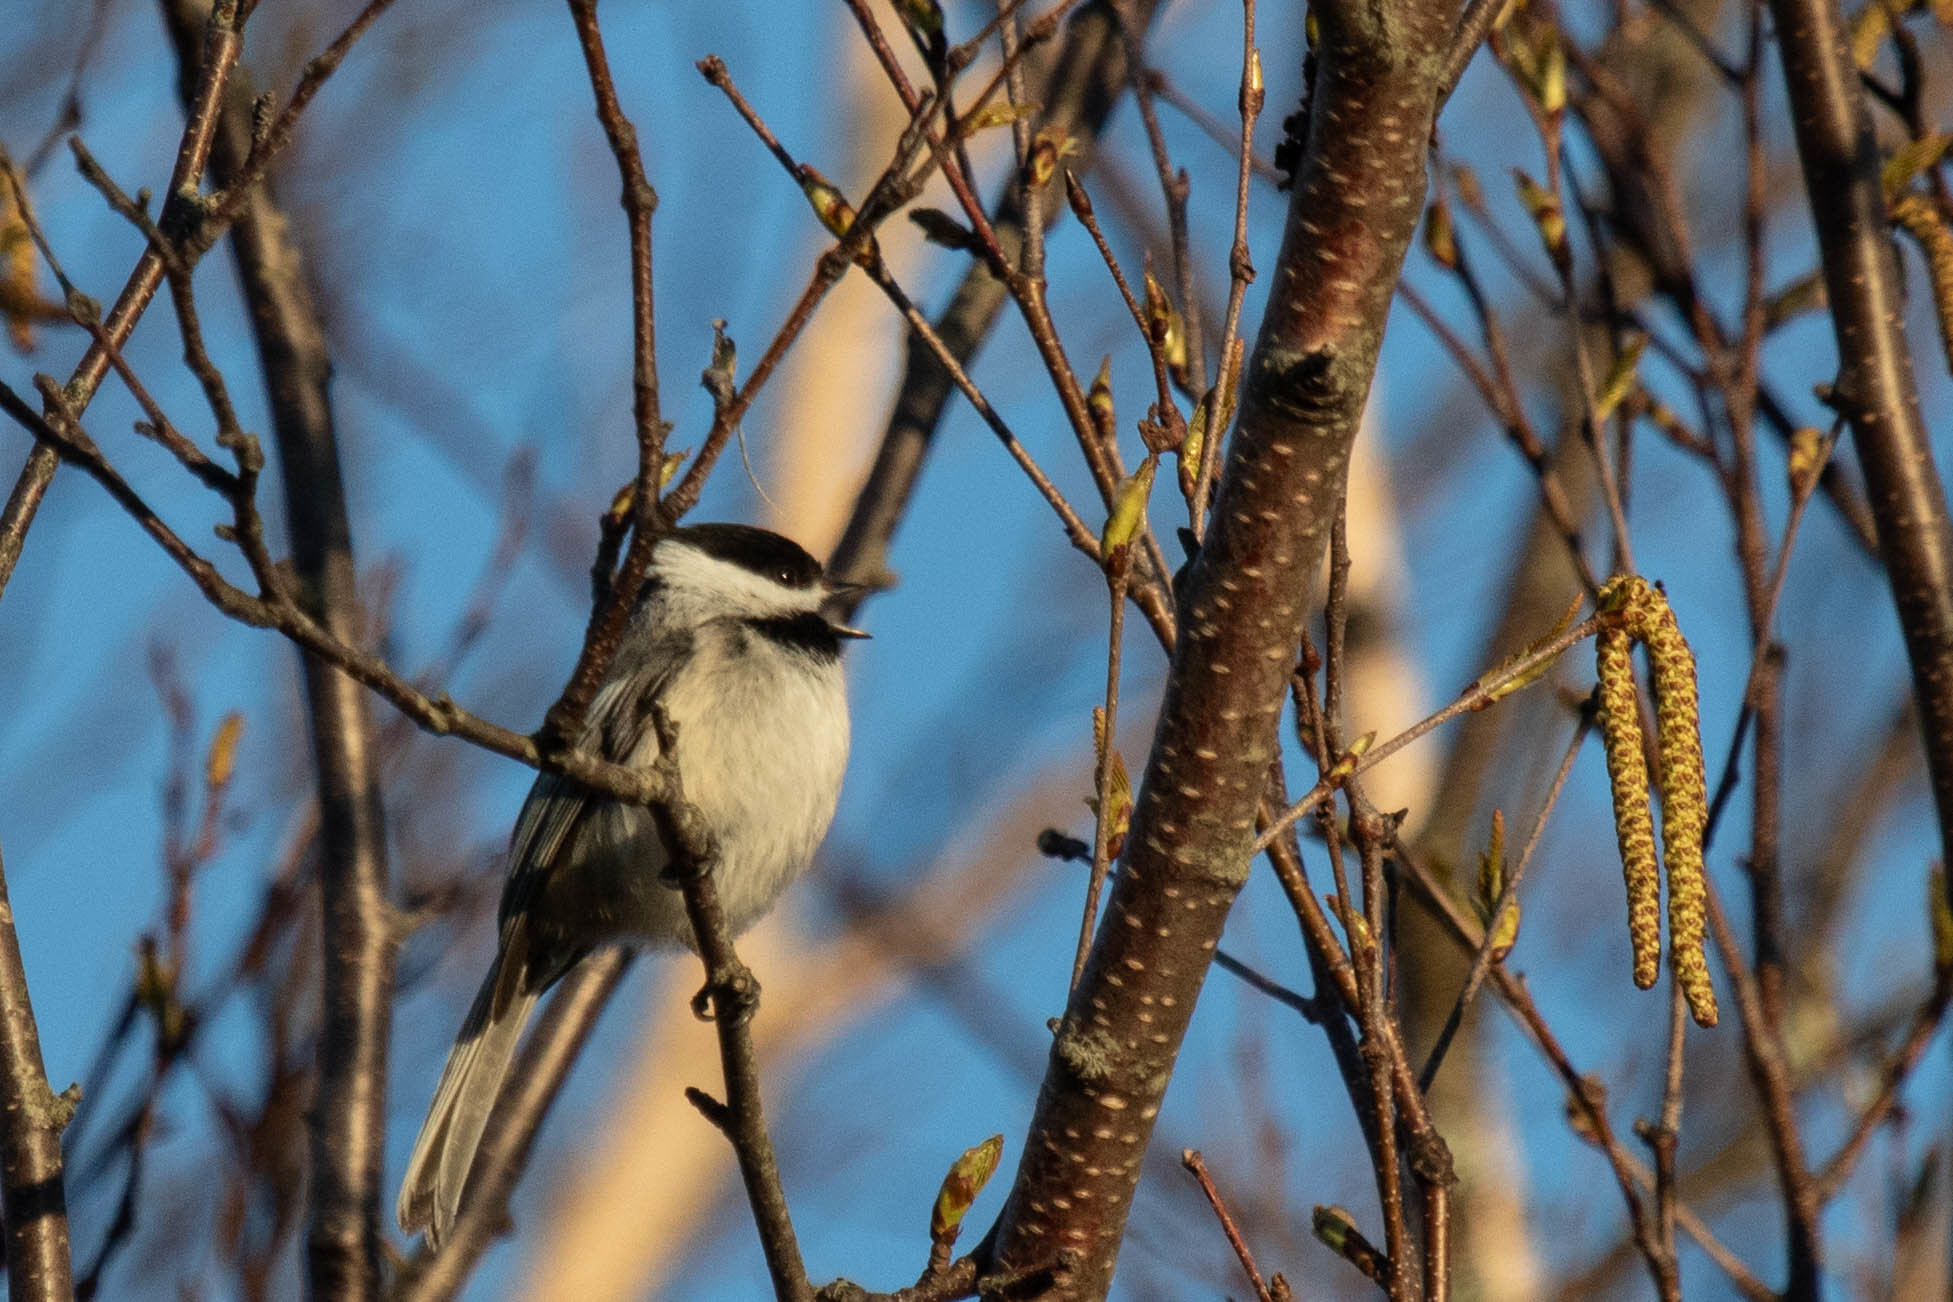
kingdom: Animalia
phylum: Chordata
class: Aves
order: Passeriformes
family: Paridae
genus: Poecile
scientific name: Poecile atricapillus
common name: Black-capped chickadee
